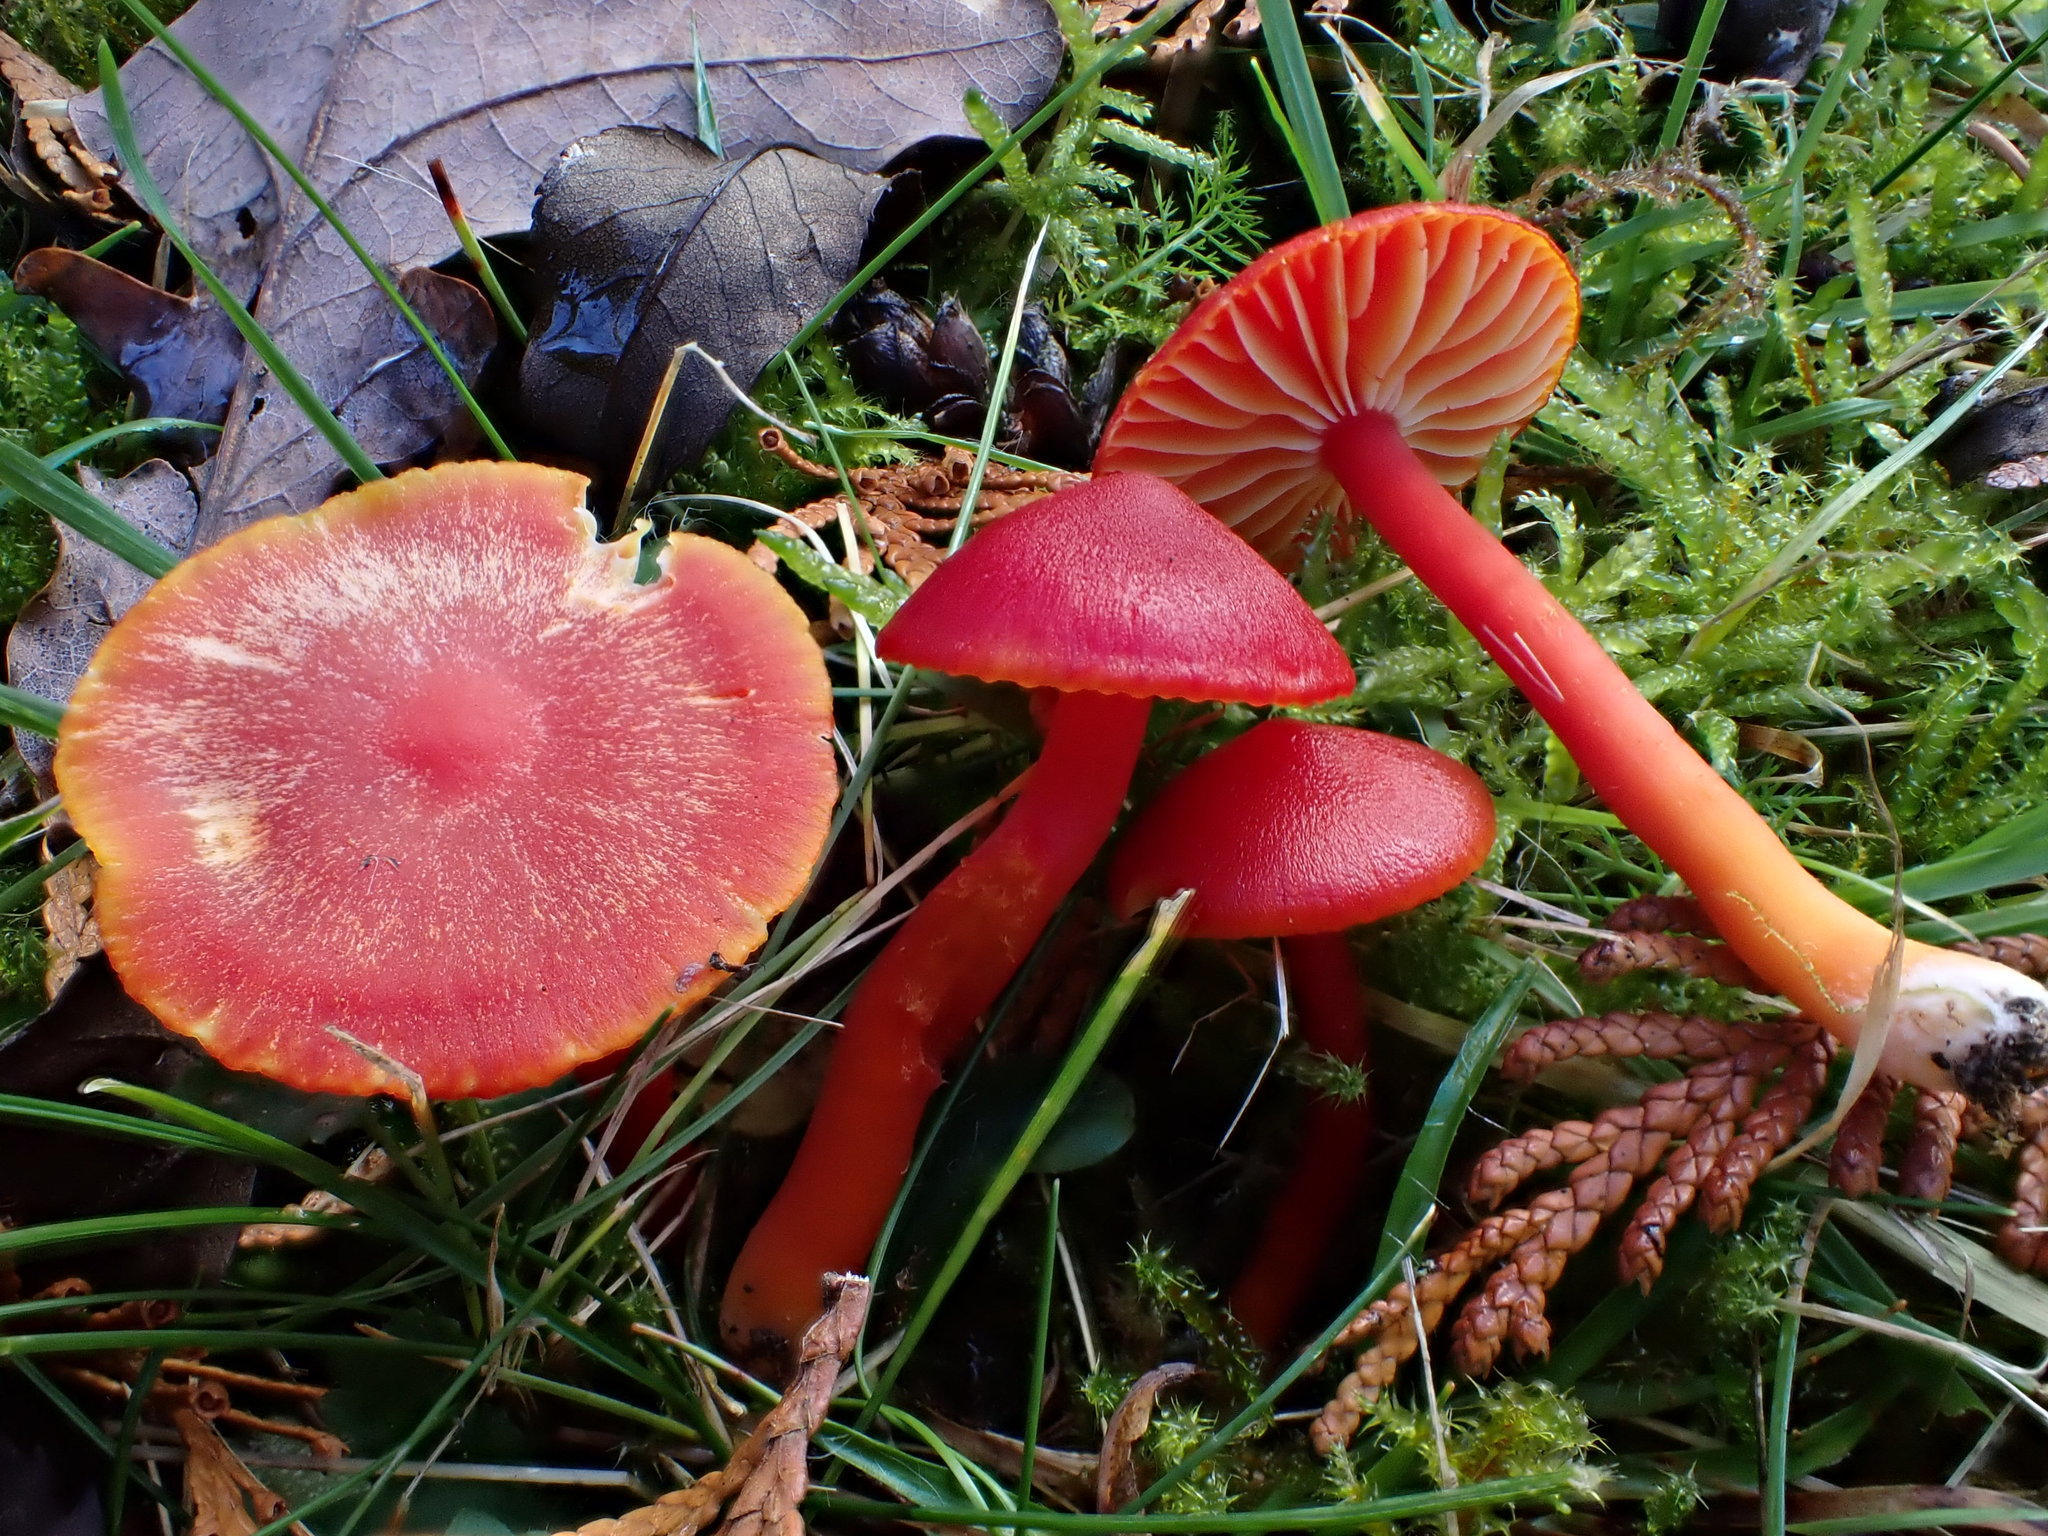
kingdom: Fungi
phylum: Basidiomycota
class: Agaricomycetes
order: Agaricales
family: Hygrophoraceae
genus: Hygrocybe
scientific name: Hygrocybe coccinea
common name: Scarlet hood
